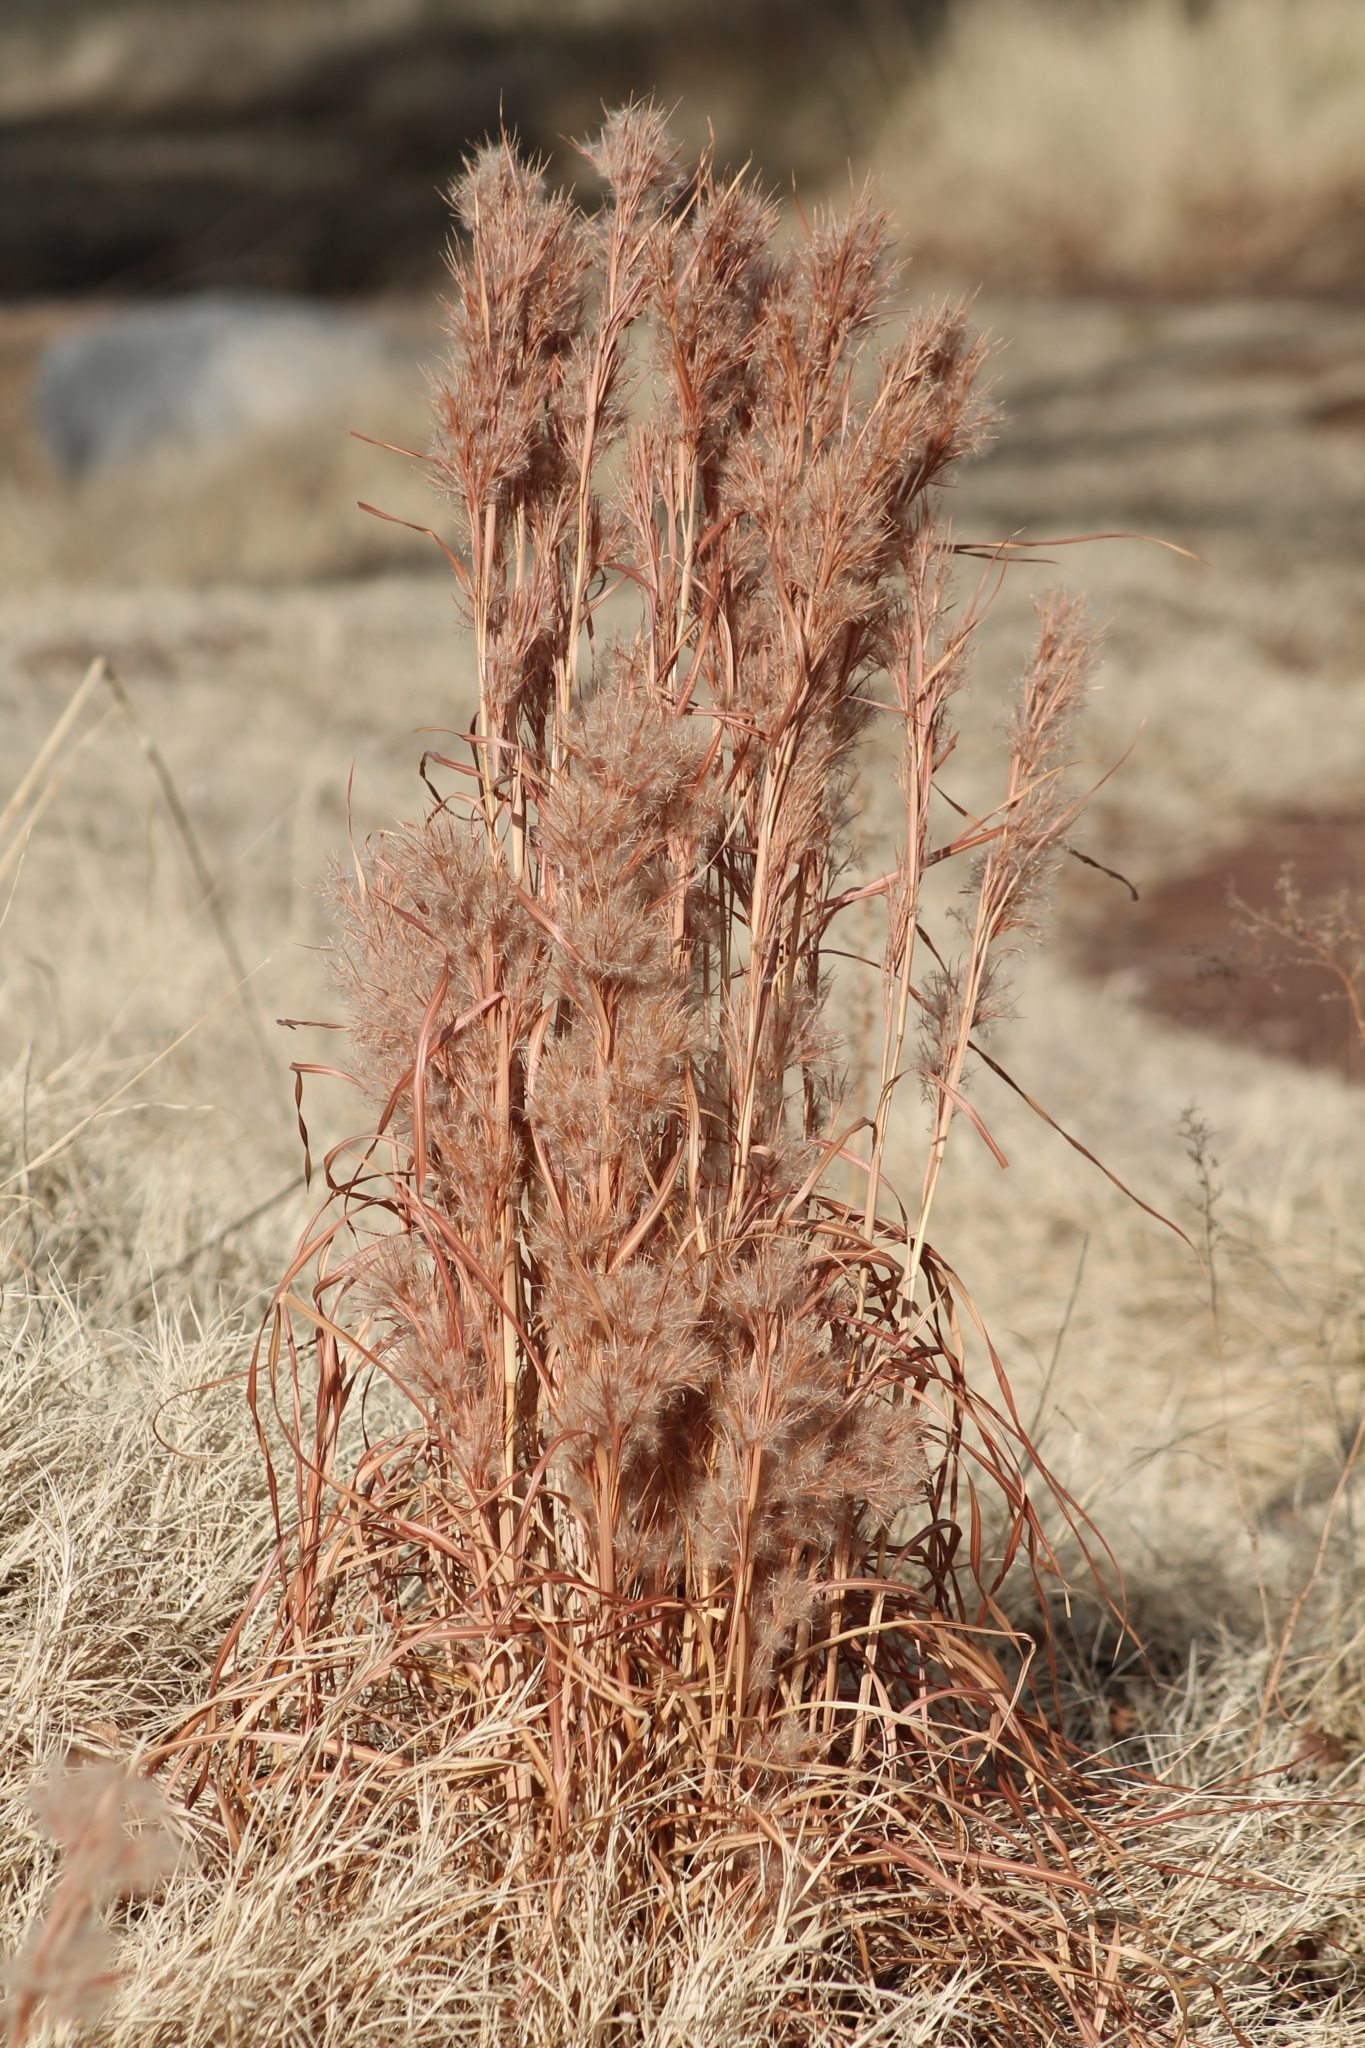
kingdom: Plantae
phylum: Tracheophyta
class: Liliopsida
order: Poales
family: Poaceae
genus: Andropogon
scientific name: Andropogon tenuispatheus
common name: Bushy bluestem
